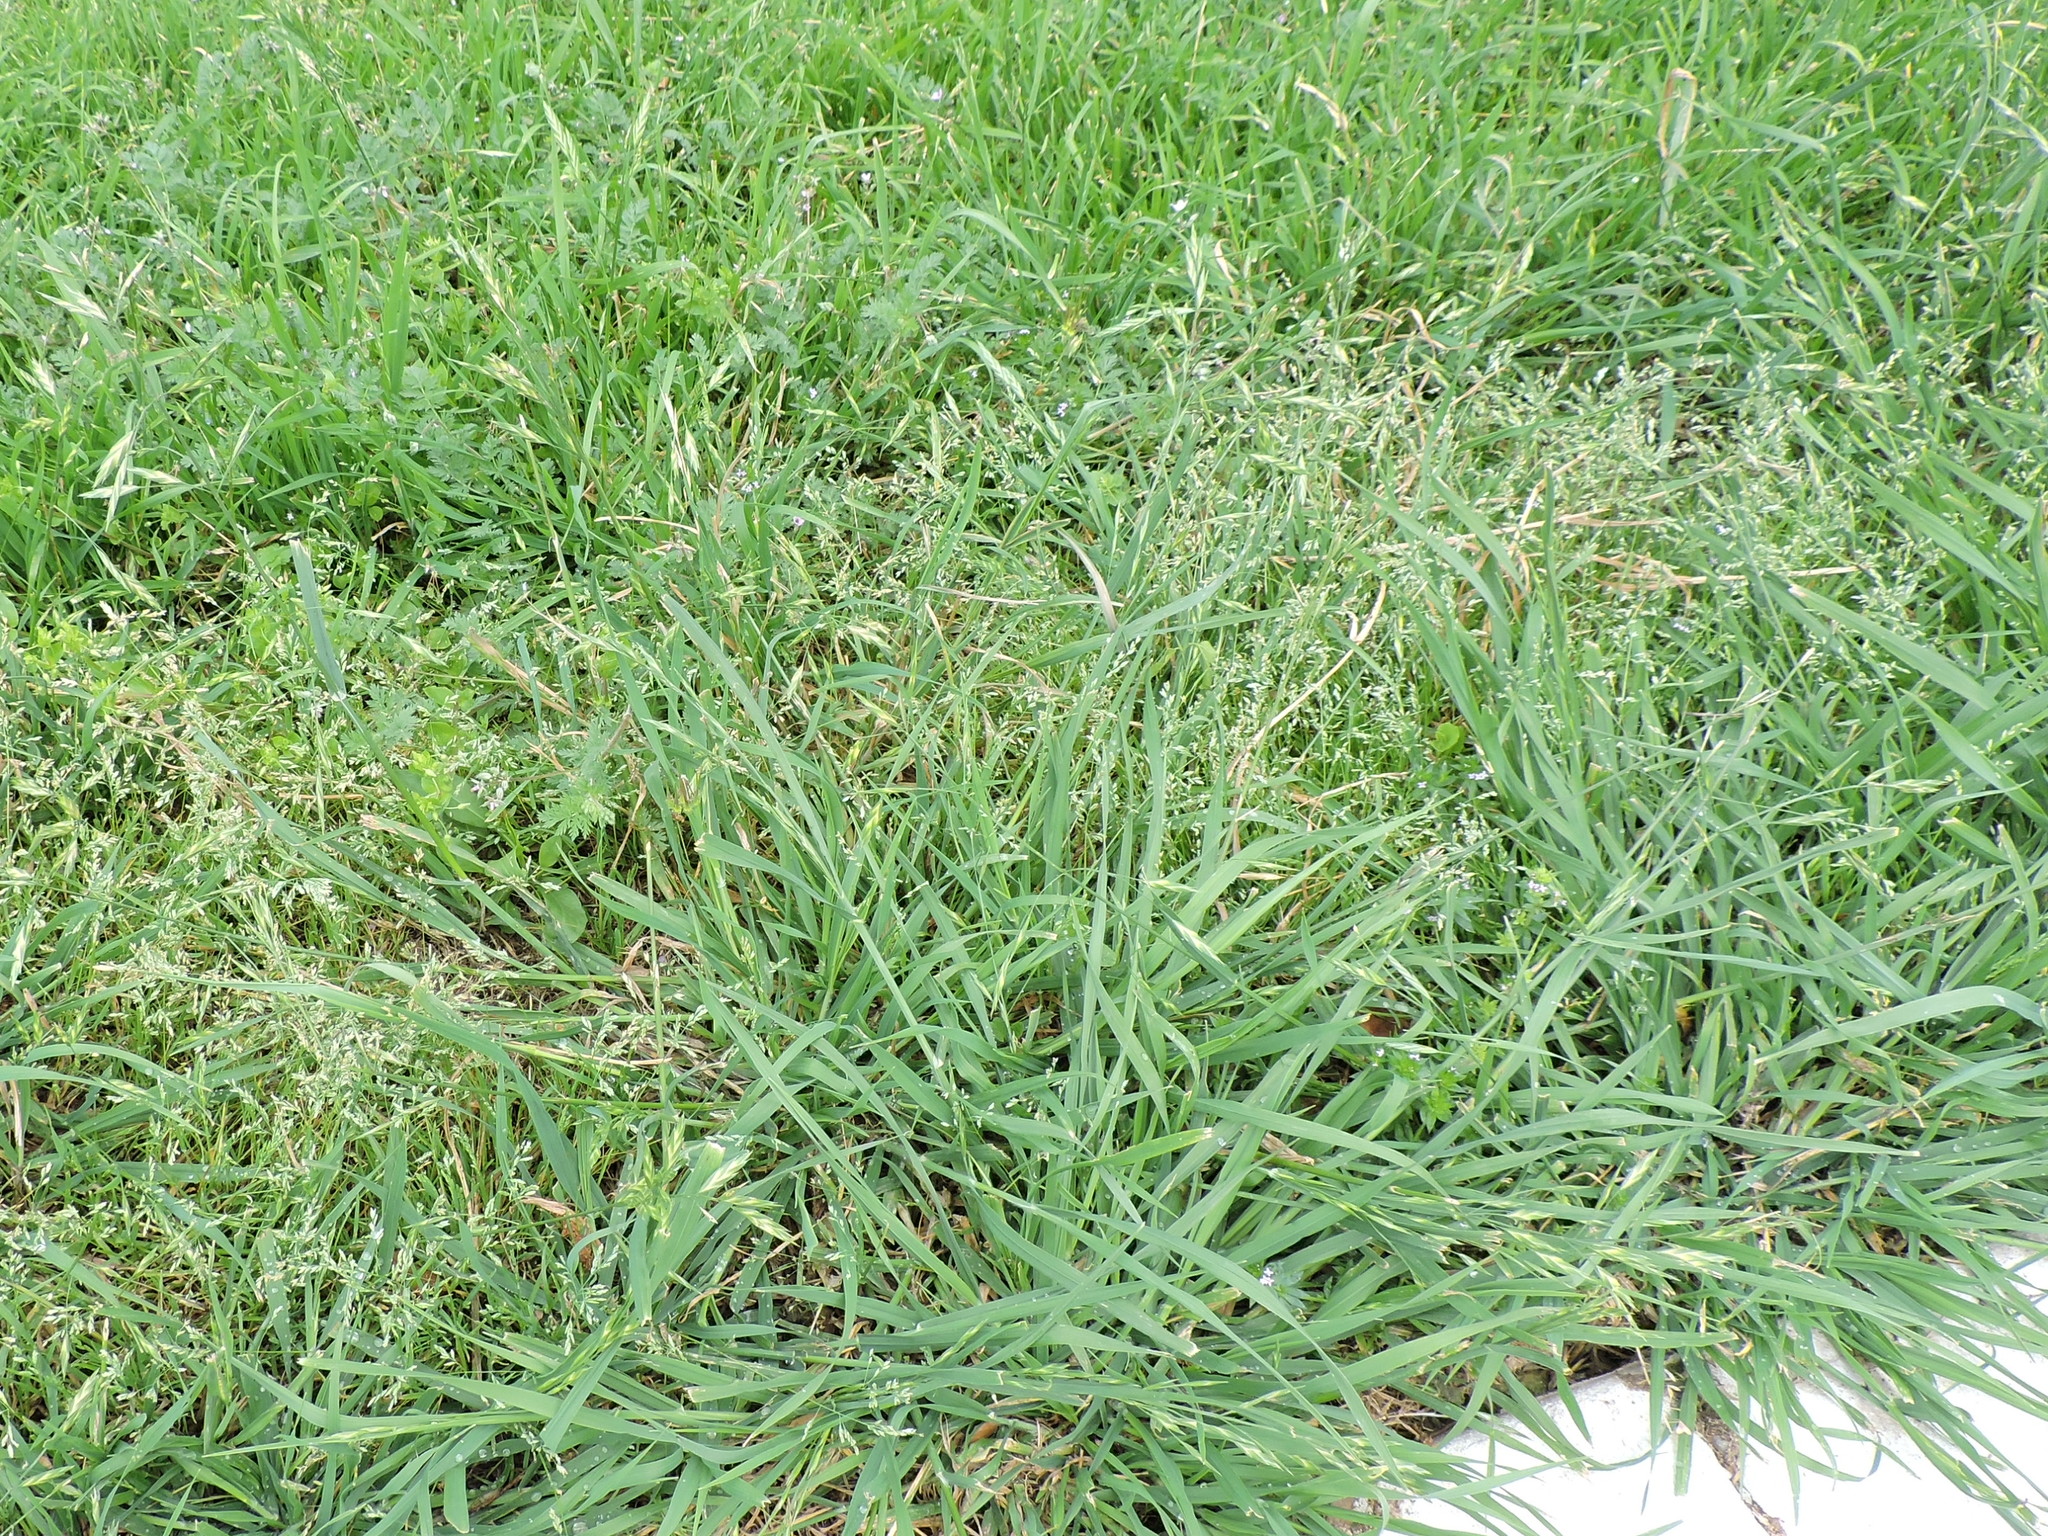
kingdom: Plantae
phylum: Tracheophyta
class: Liliopsida
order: Poales
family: Poaceae
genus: Bromus
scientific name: Bromus catharticus
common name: Rescuegrass
